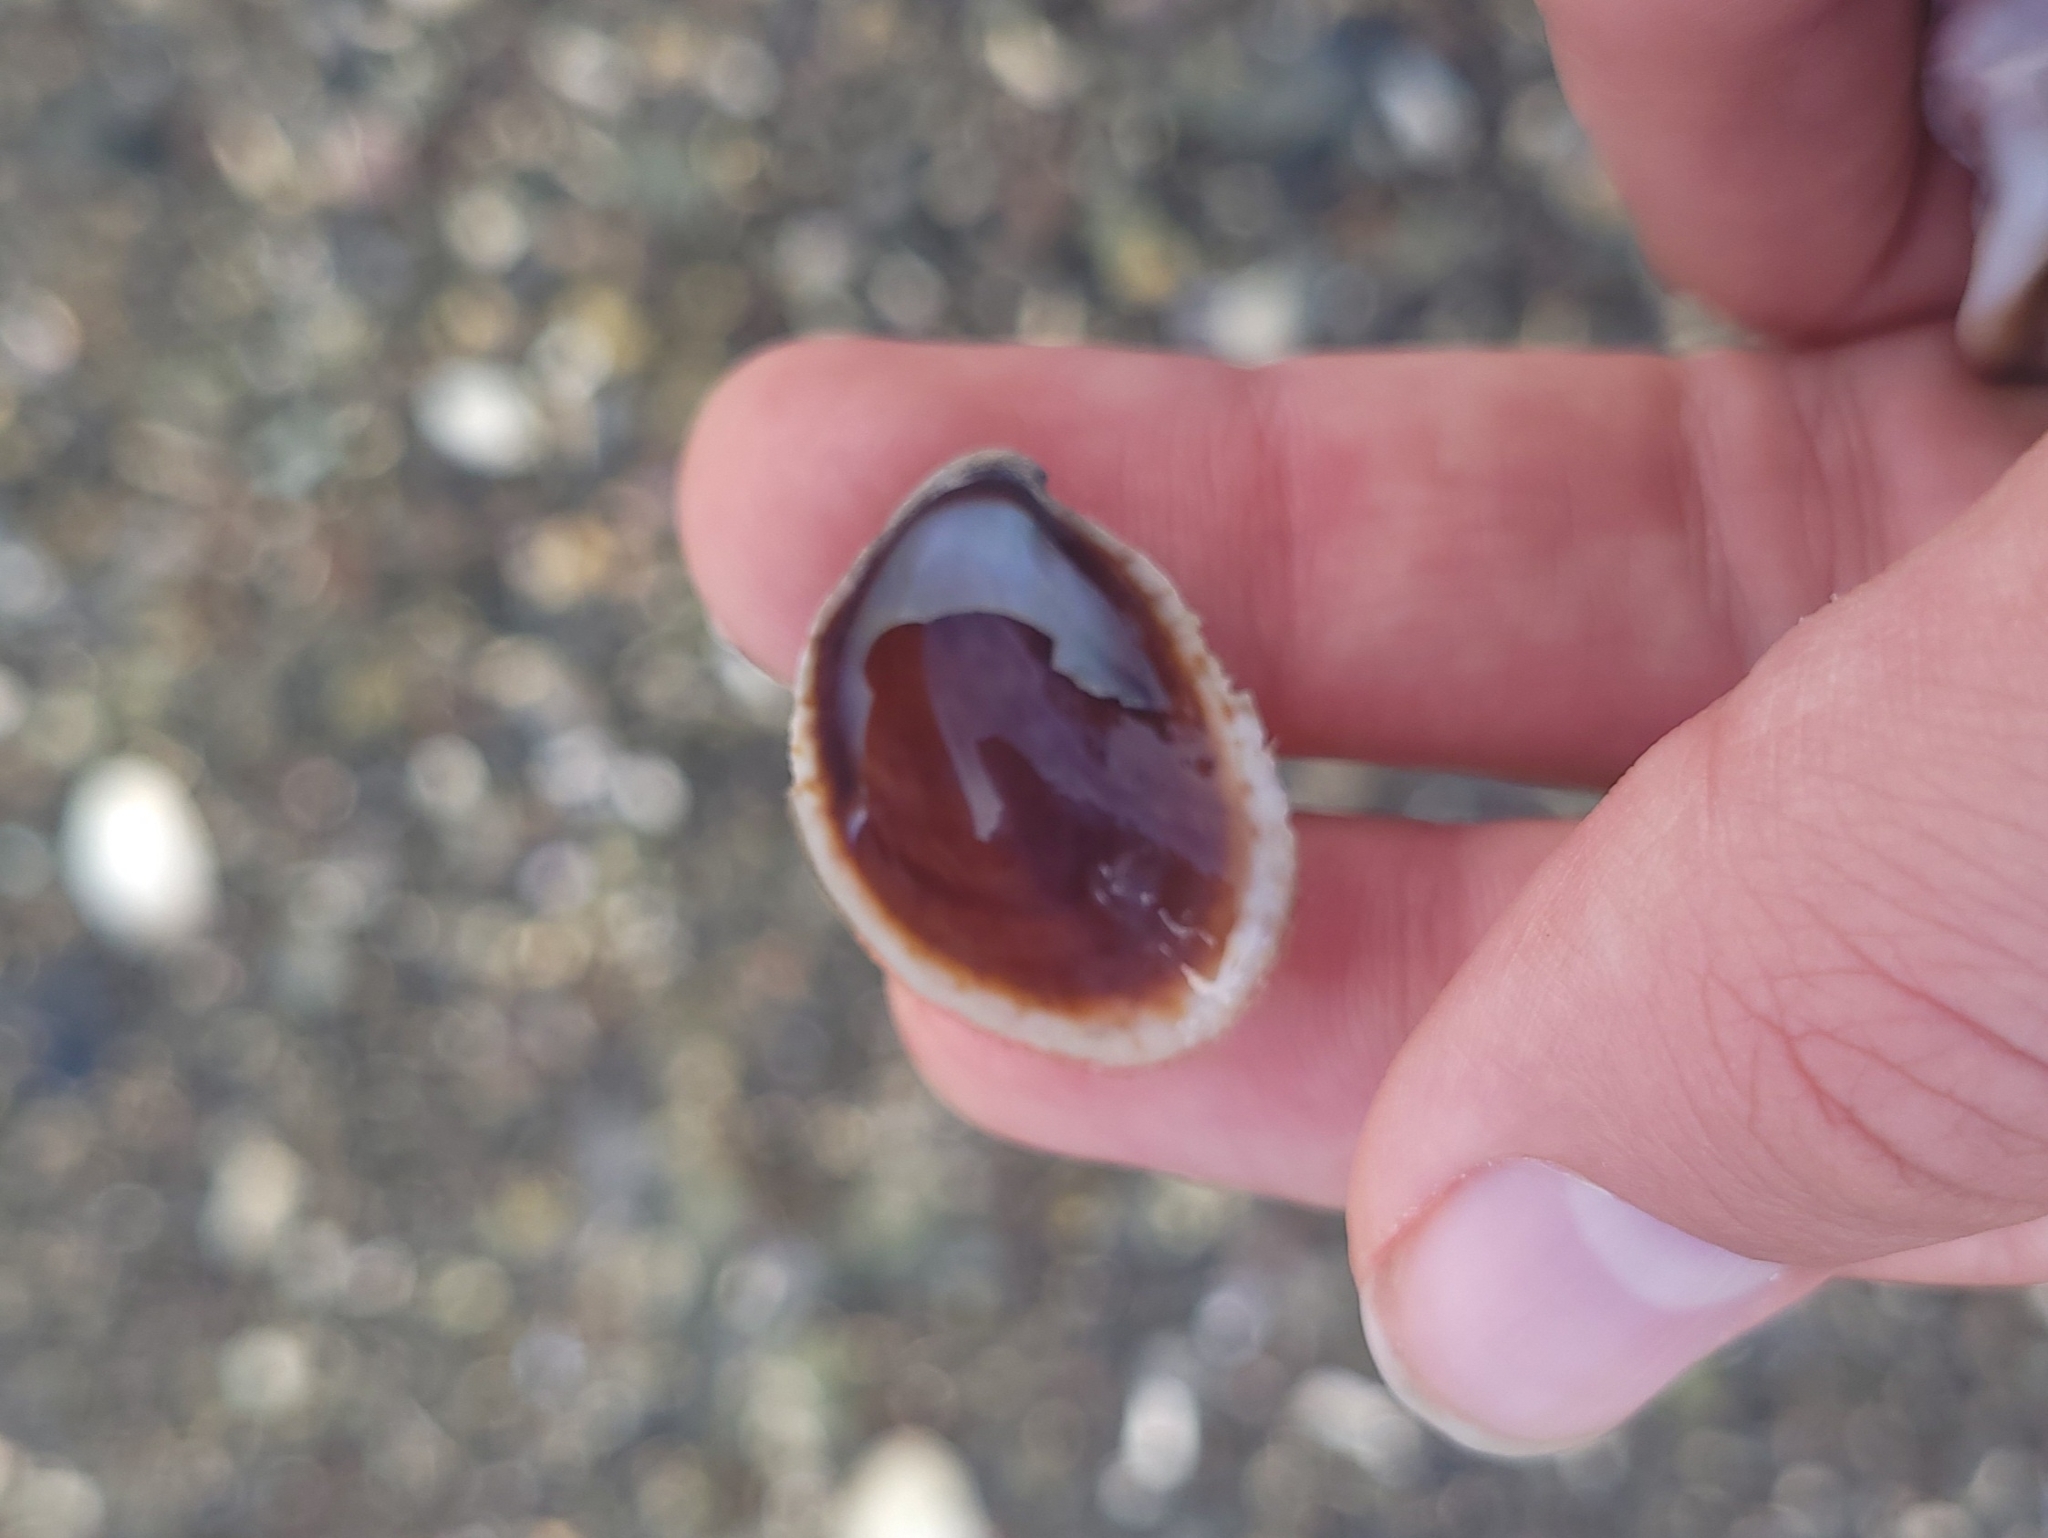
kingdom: Animalia
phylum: Mollusca
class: Gastropoda
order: Littorinimorpha
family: Calyptraeidae
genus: Crepidula
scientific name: Crepidula fornicata
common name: Slipper limpet
